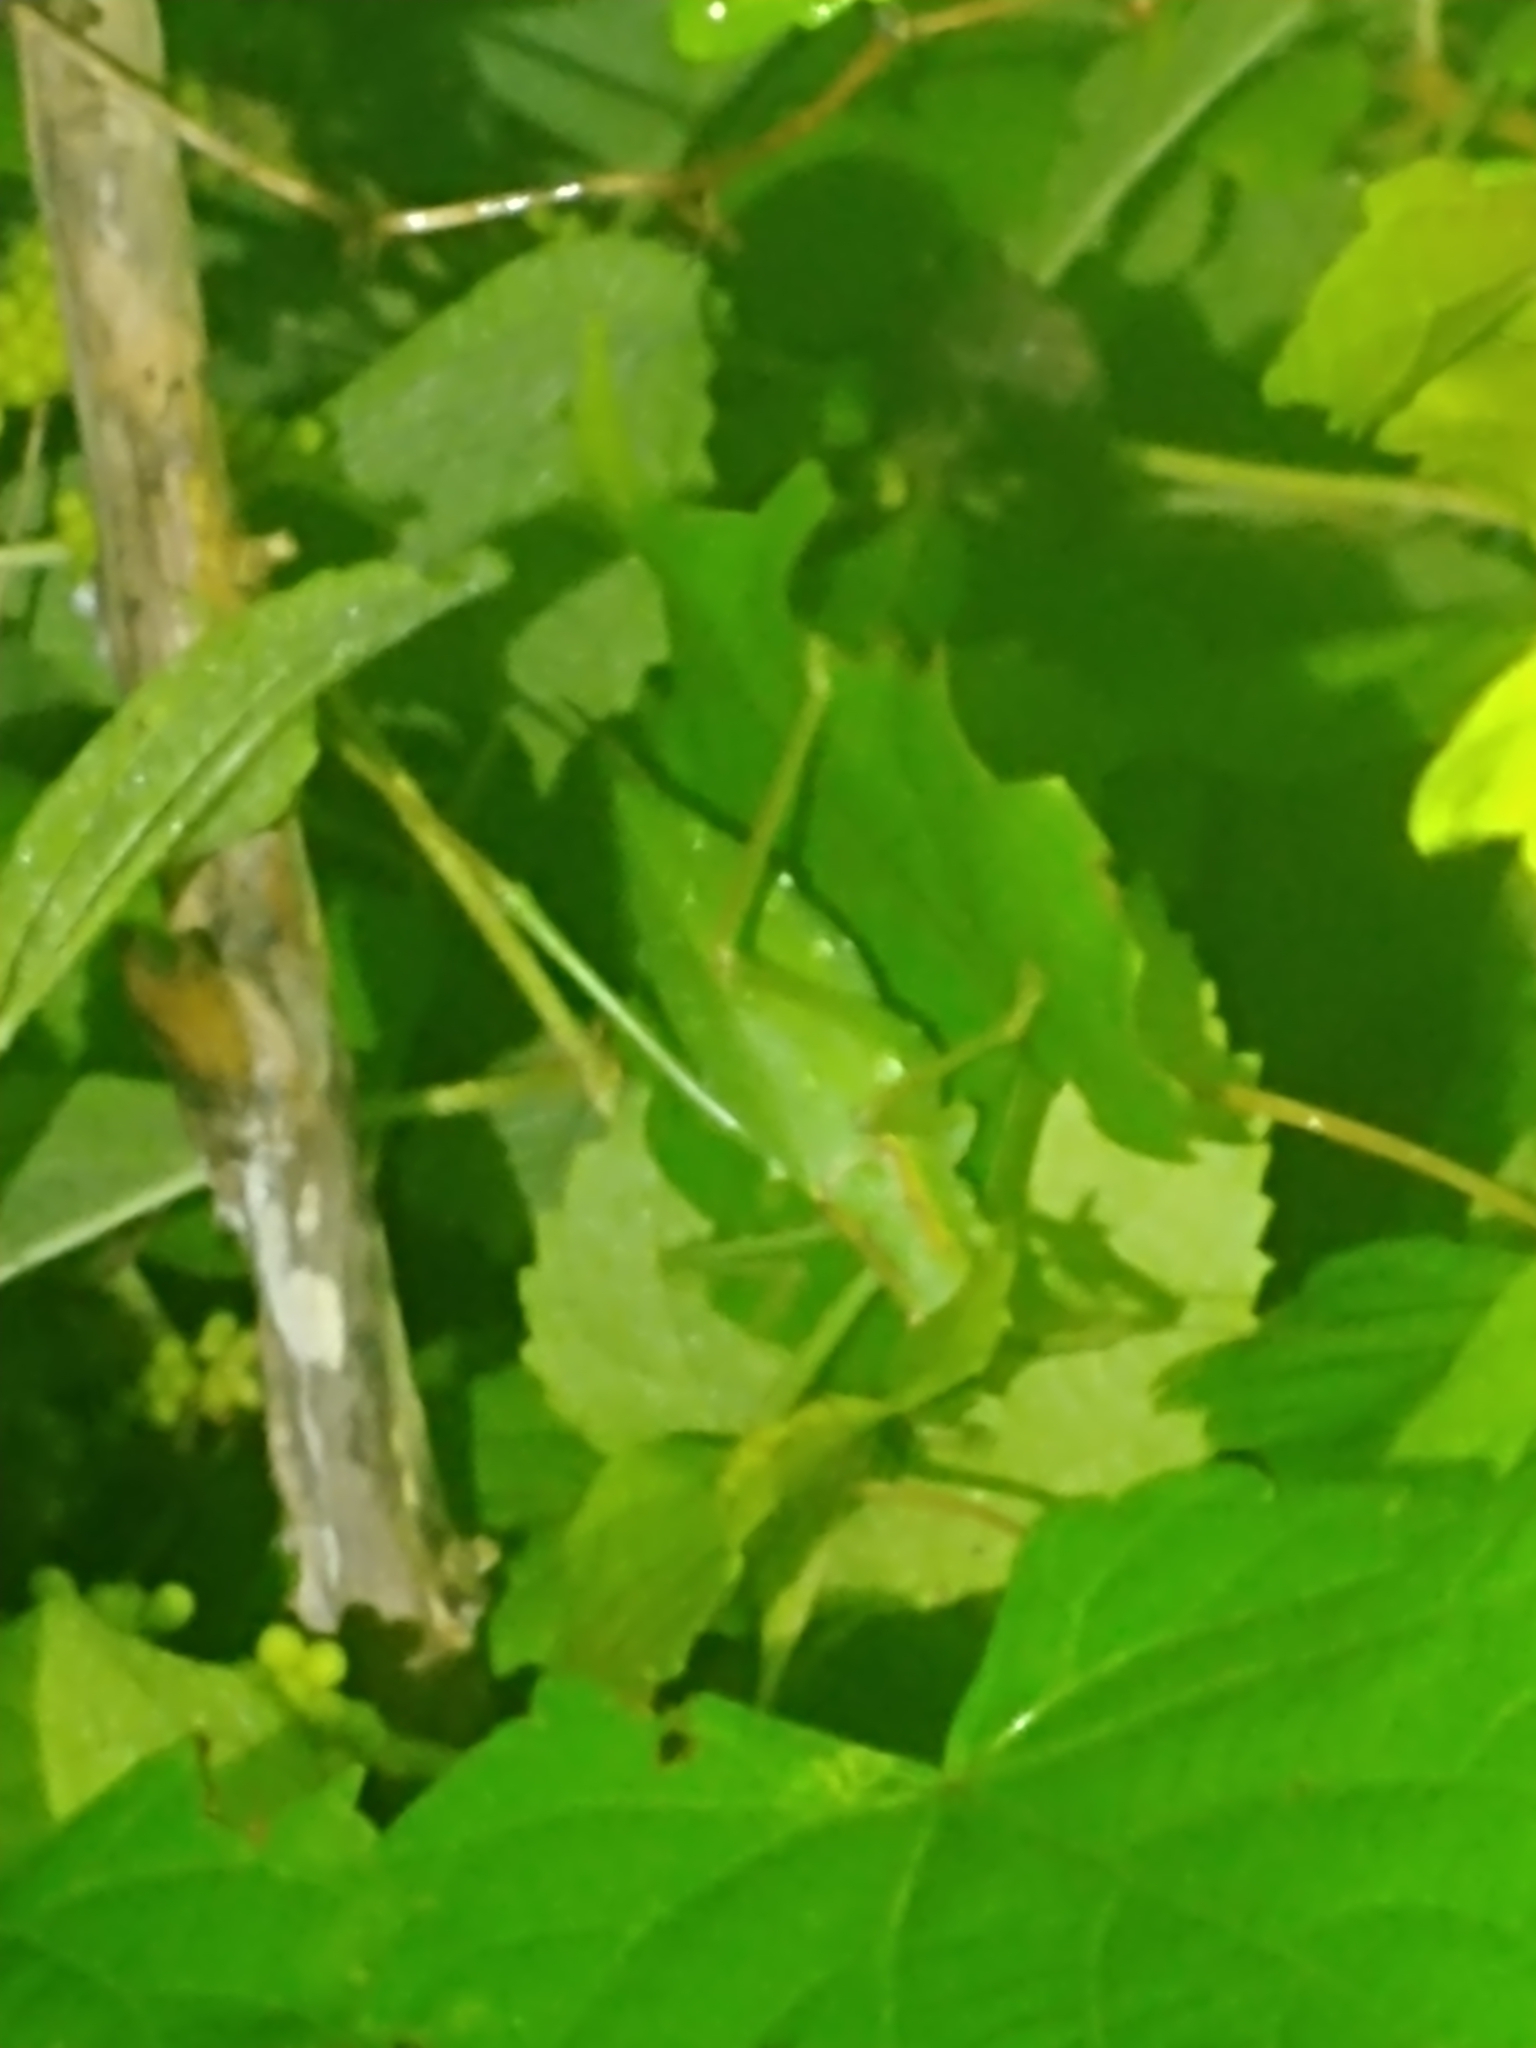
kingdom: Animalia
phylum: Arthropoda
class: Insecta
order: Orthoptera
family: Tettigoniidae
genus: Lea
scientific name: Lea floridensis
